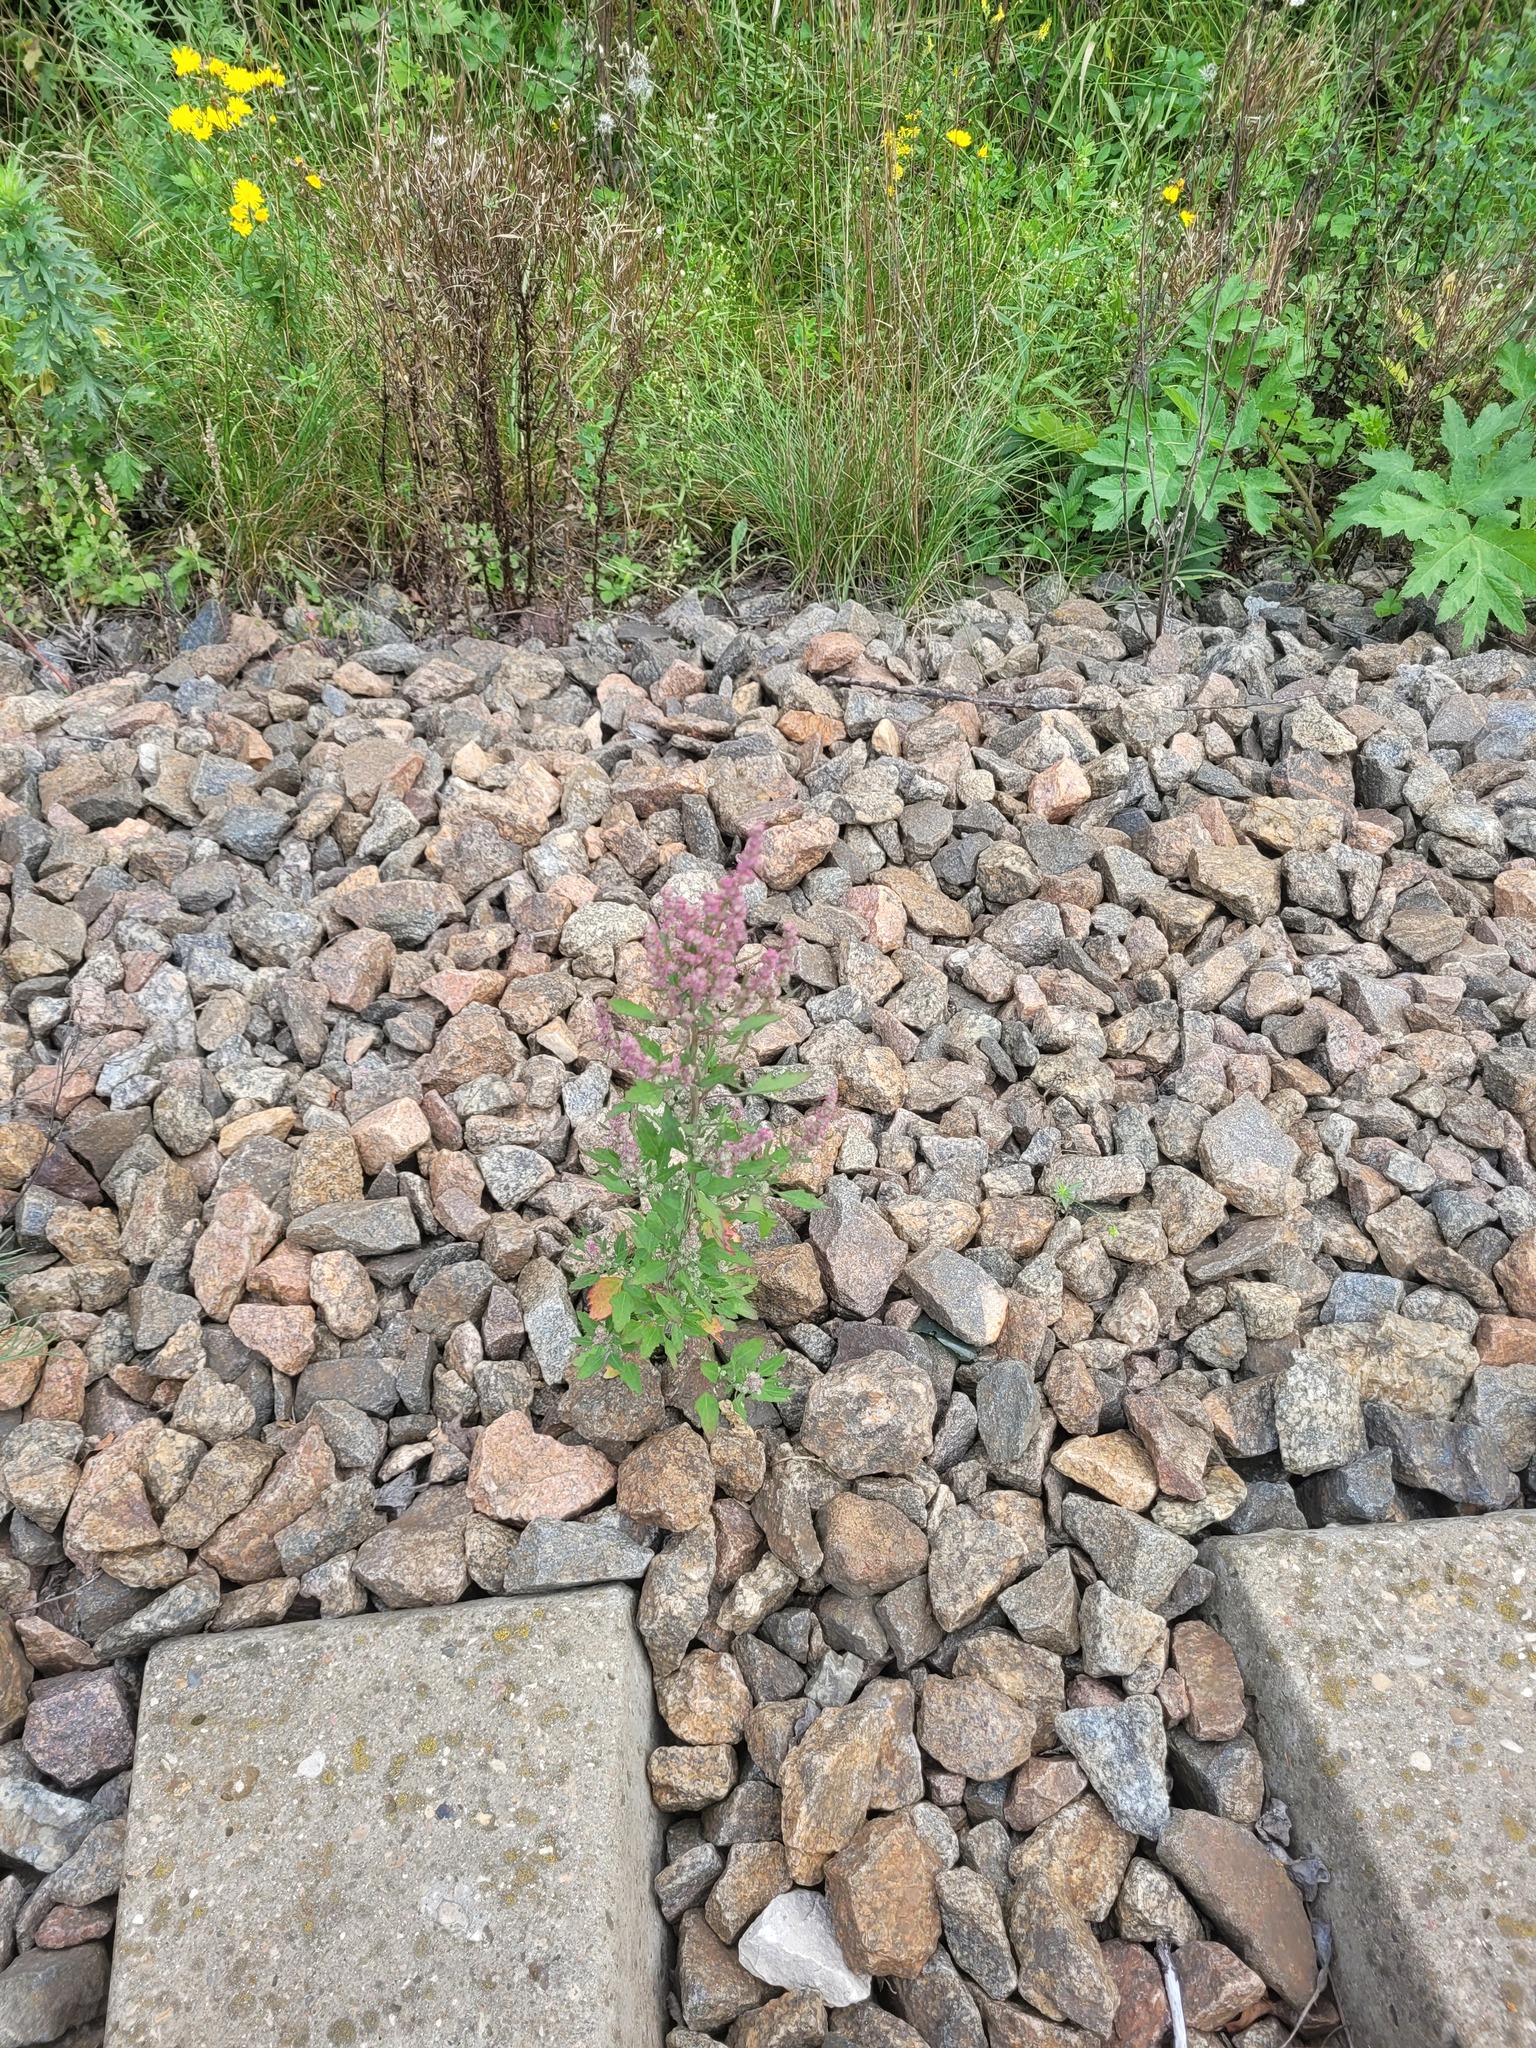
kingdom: Plantae
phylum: Tracheophyta
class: Magnoliopsida
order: Caryophyllales
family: Amaranthaceae
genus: Chenopodium
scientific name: Chenopodium album
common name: Fat-hen
